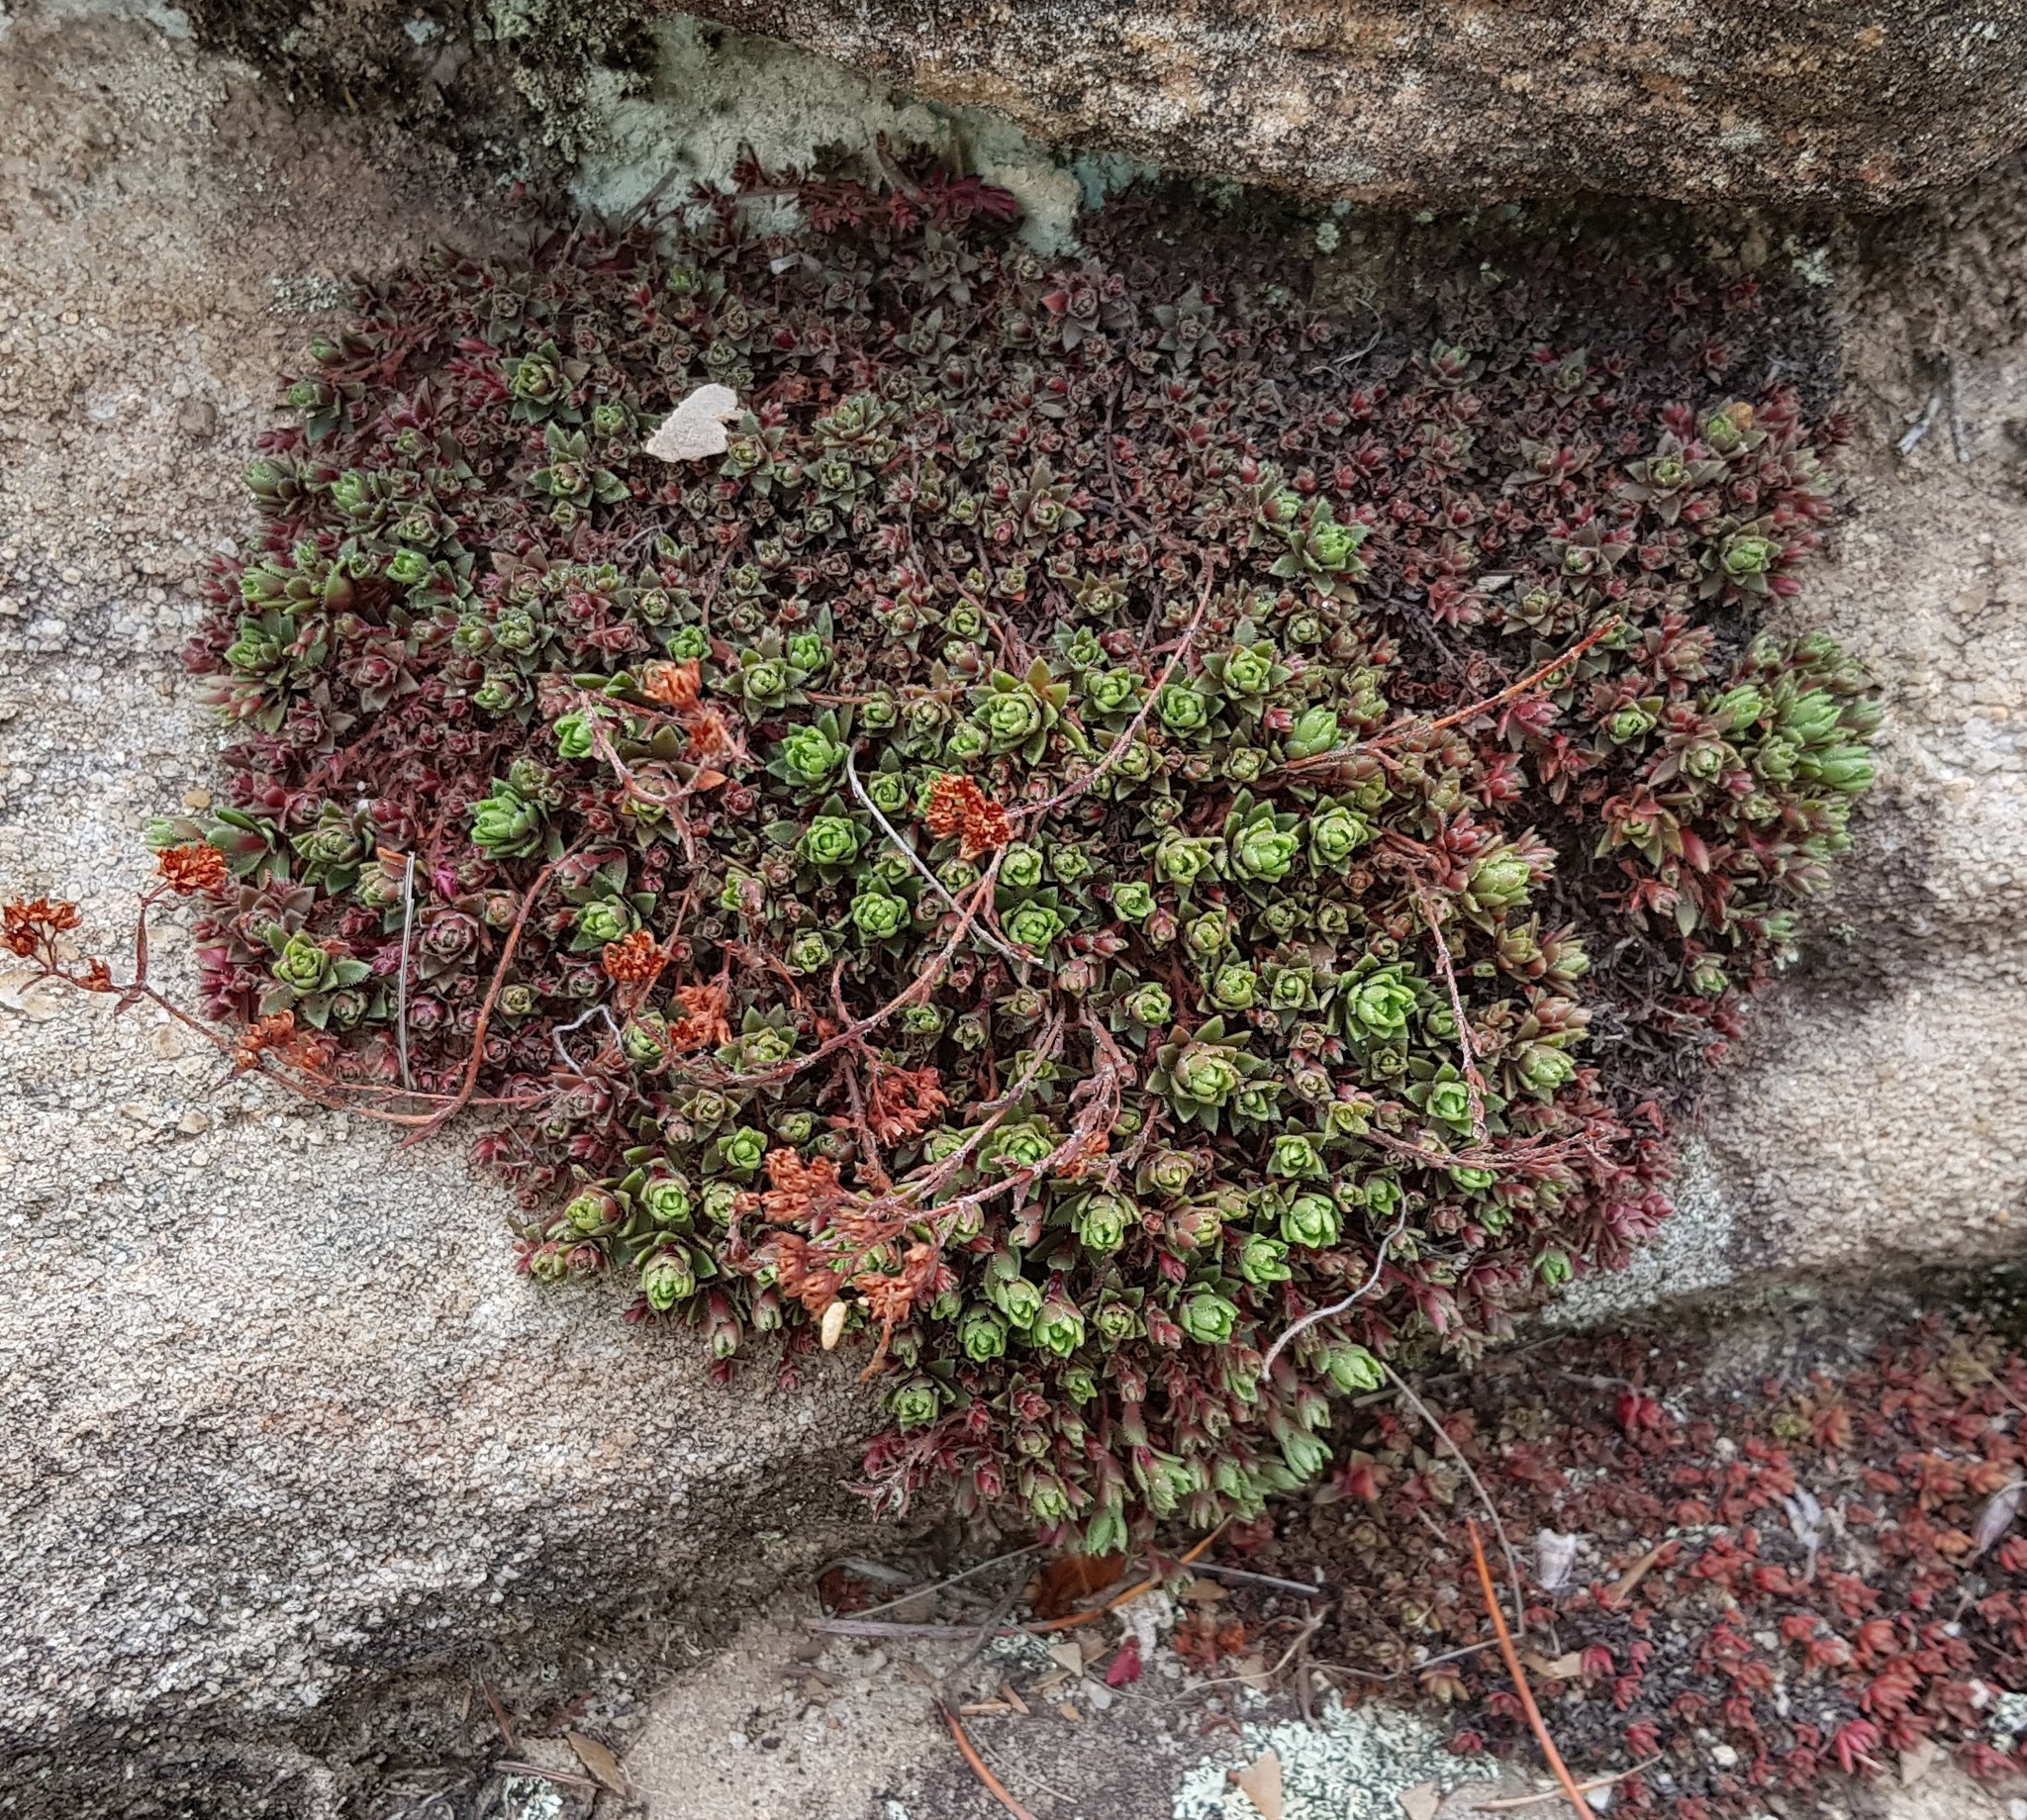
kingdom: Plantae
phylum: Tracheophyta
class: Magnoliopsida
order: Saxifragales
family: Crassulaceae
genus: Crassula
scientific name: Crassula setulosa
